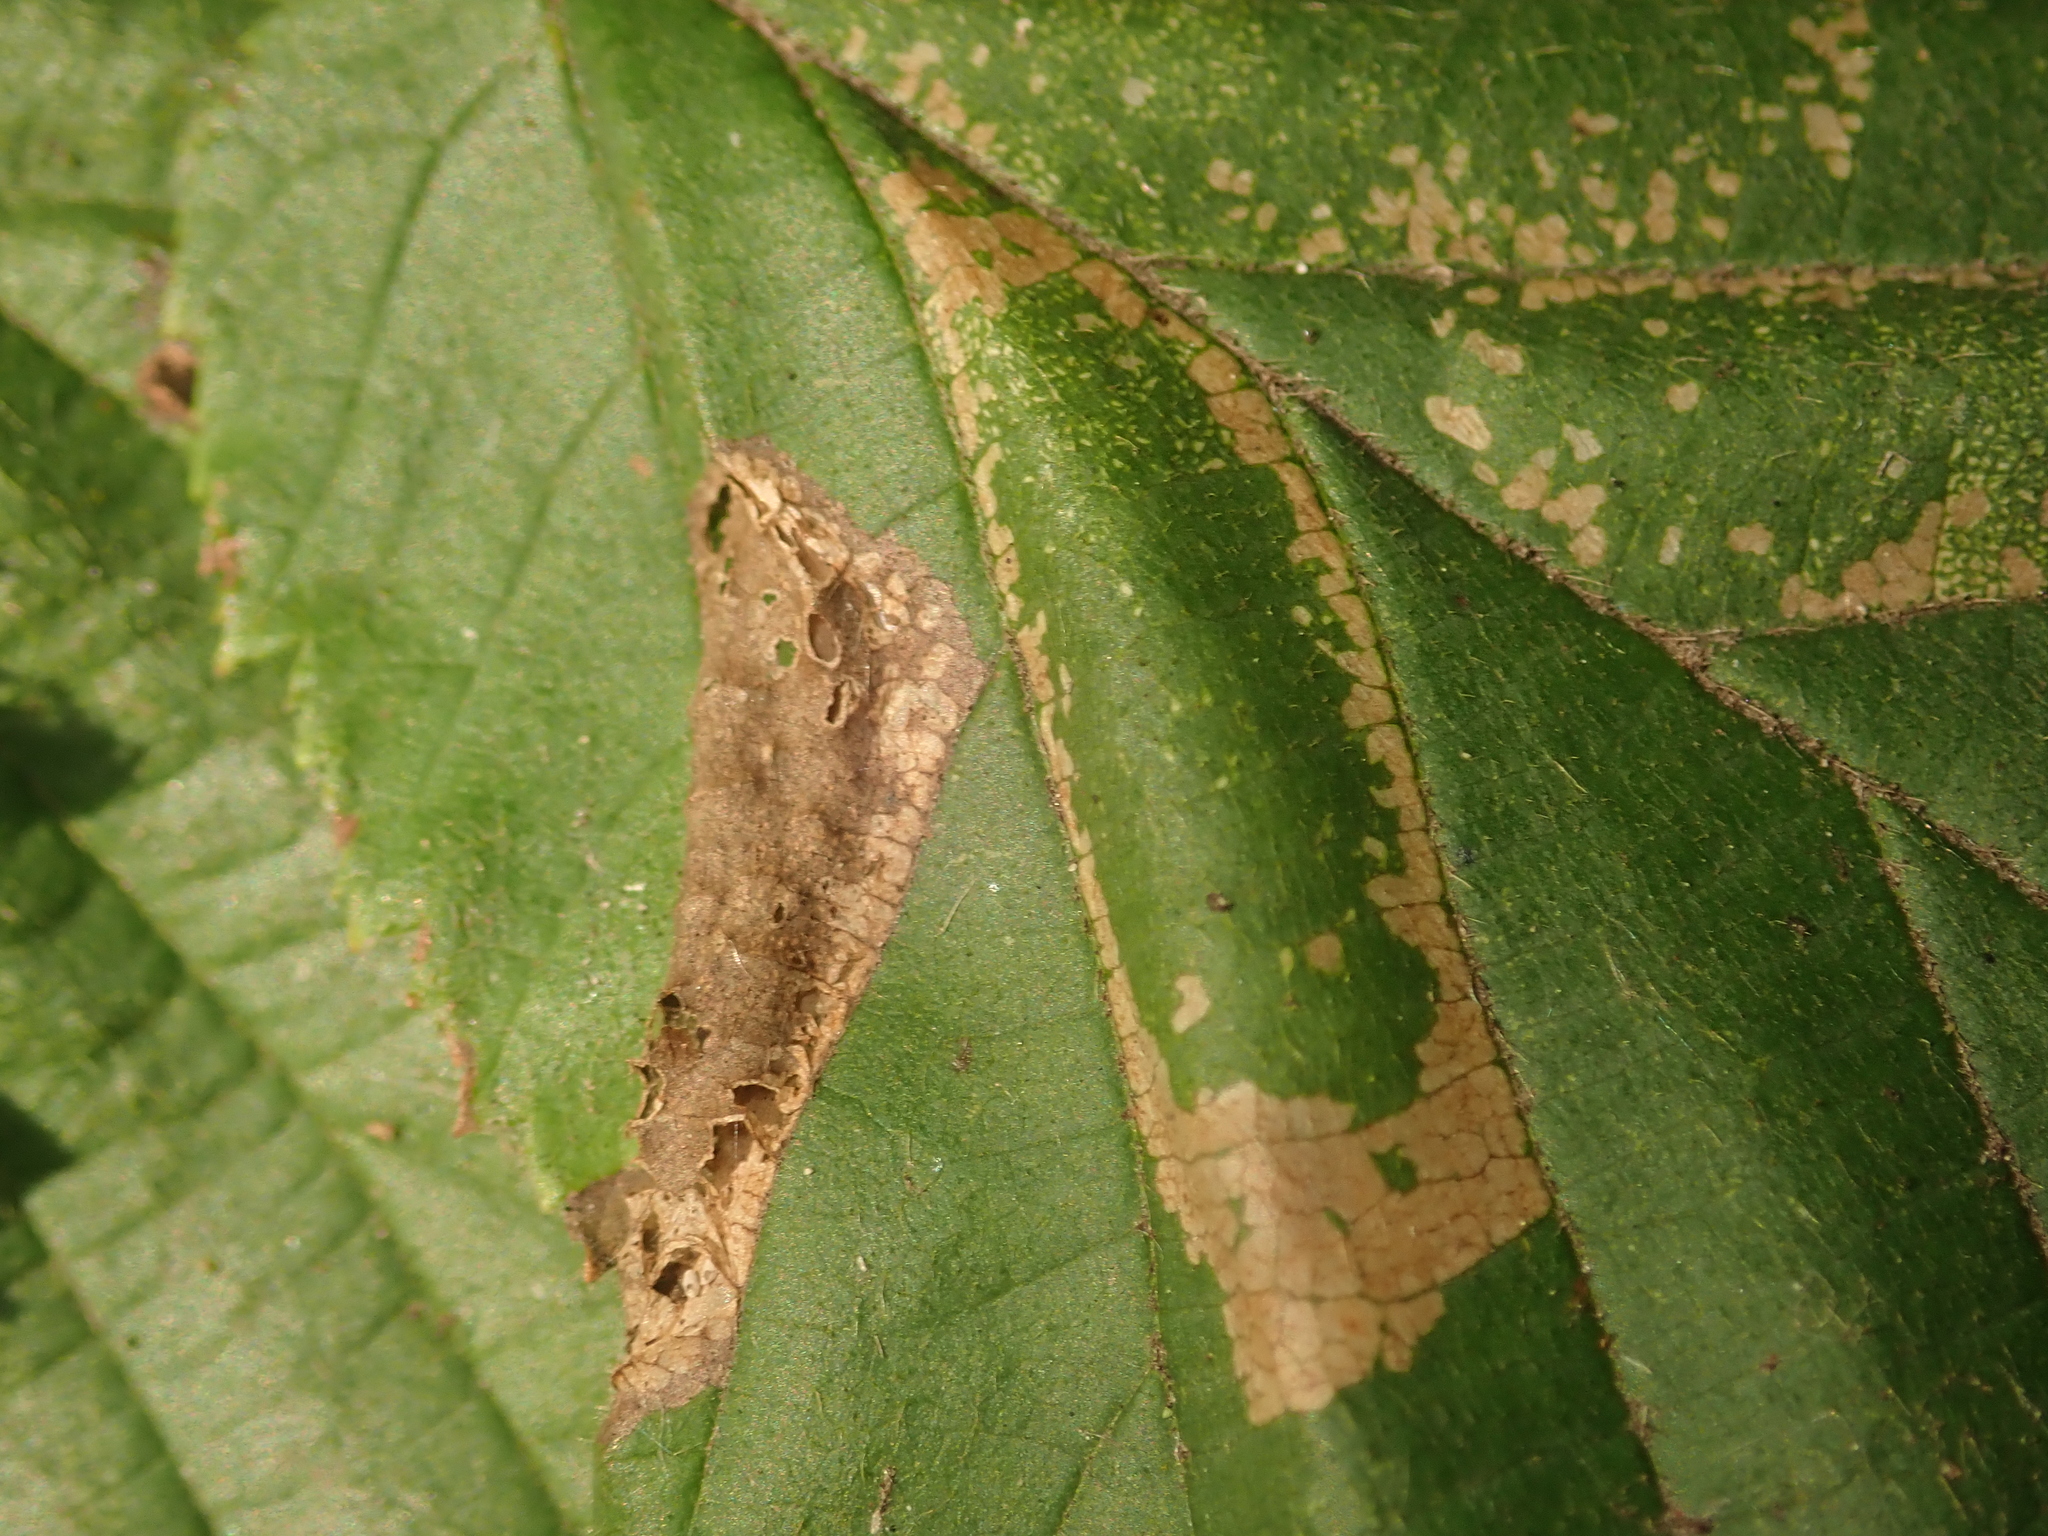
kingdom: Animalia
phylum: Arthropoda
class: Insecta
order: Lepidoptera
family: Gracillariidae
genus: Phyllonorycter
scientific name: Phyllonorycter nicellii
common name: Red hazel midget
